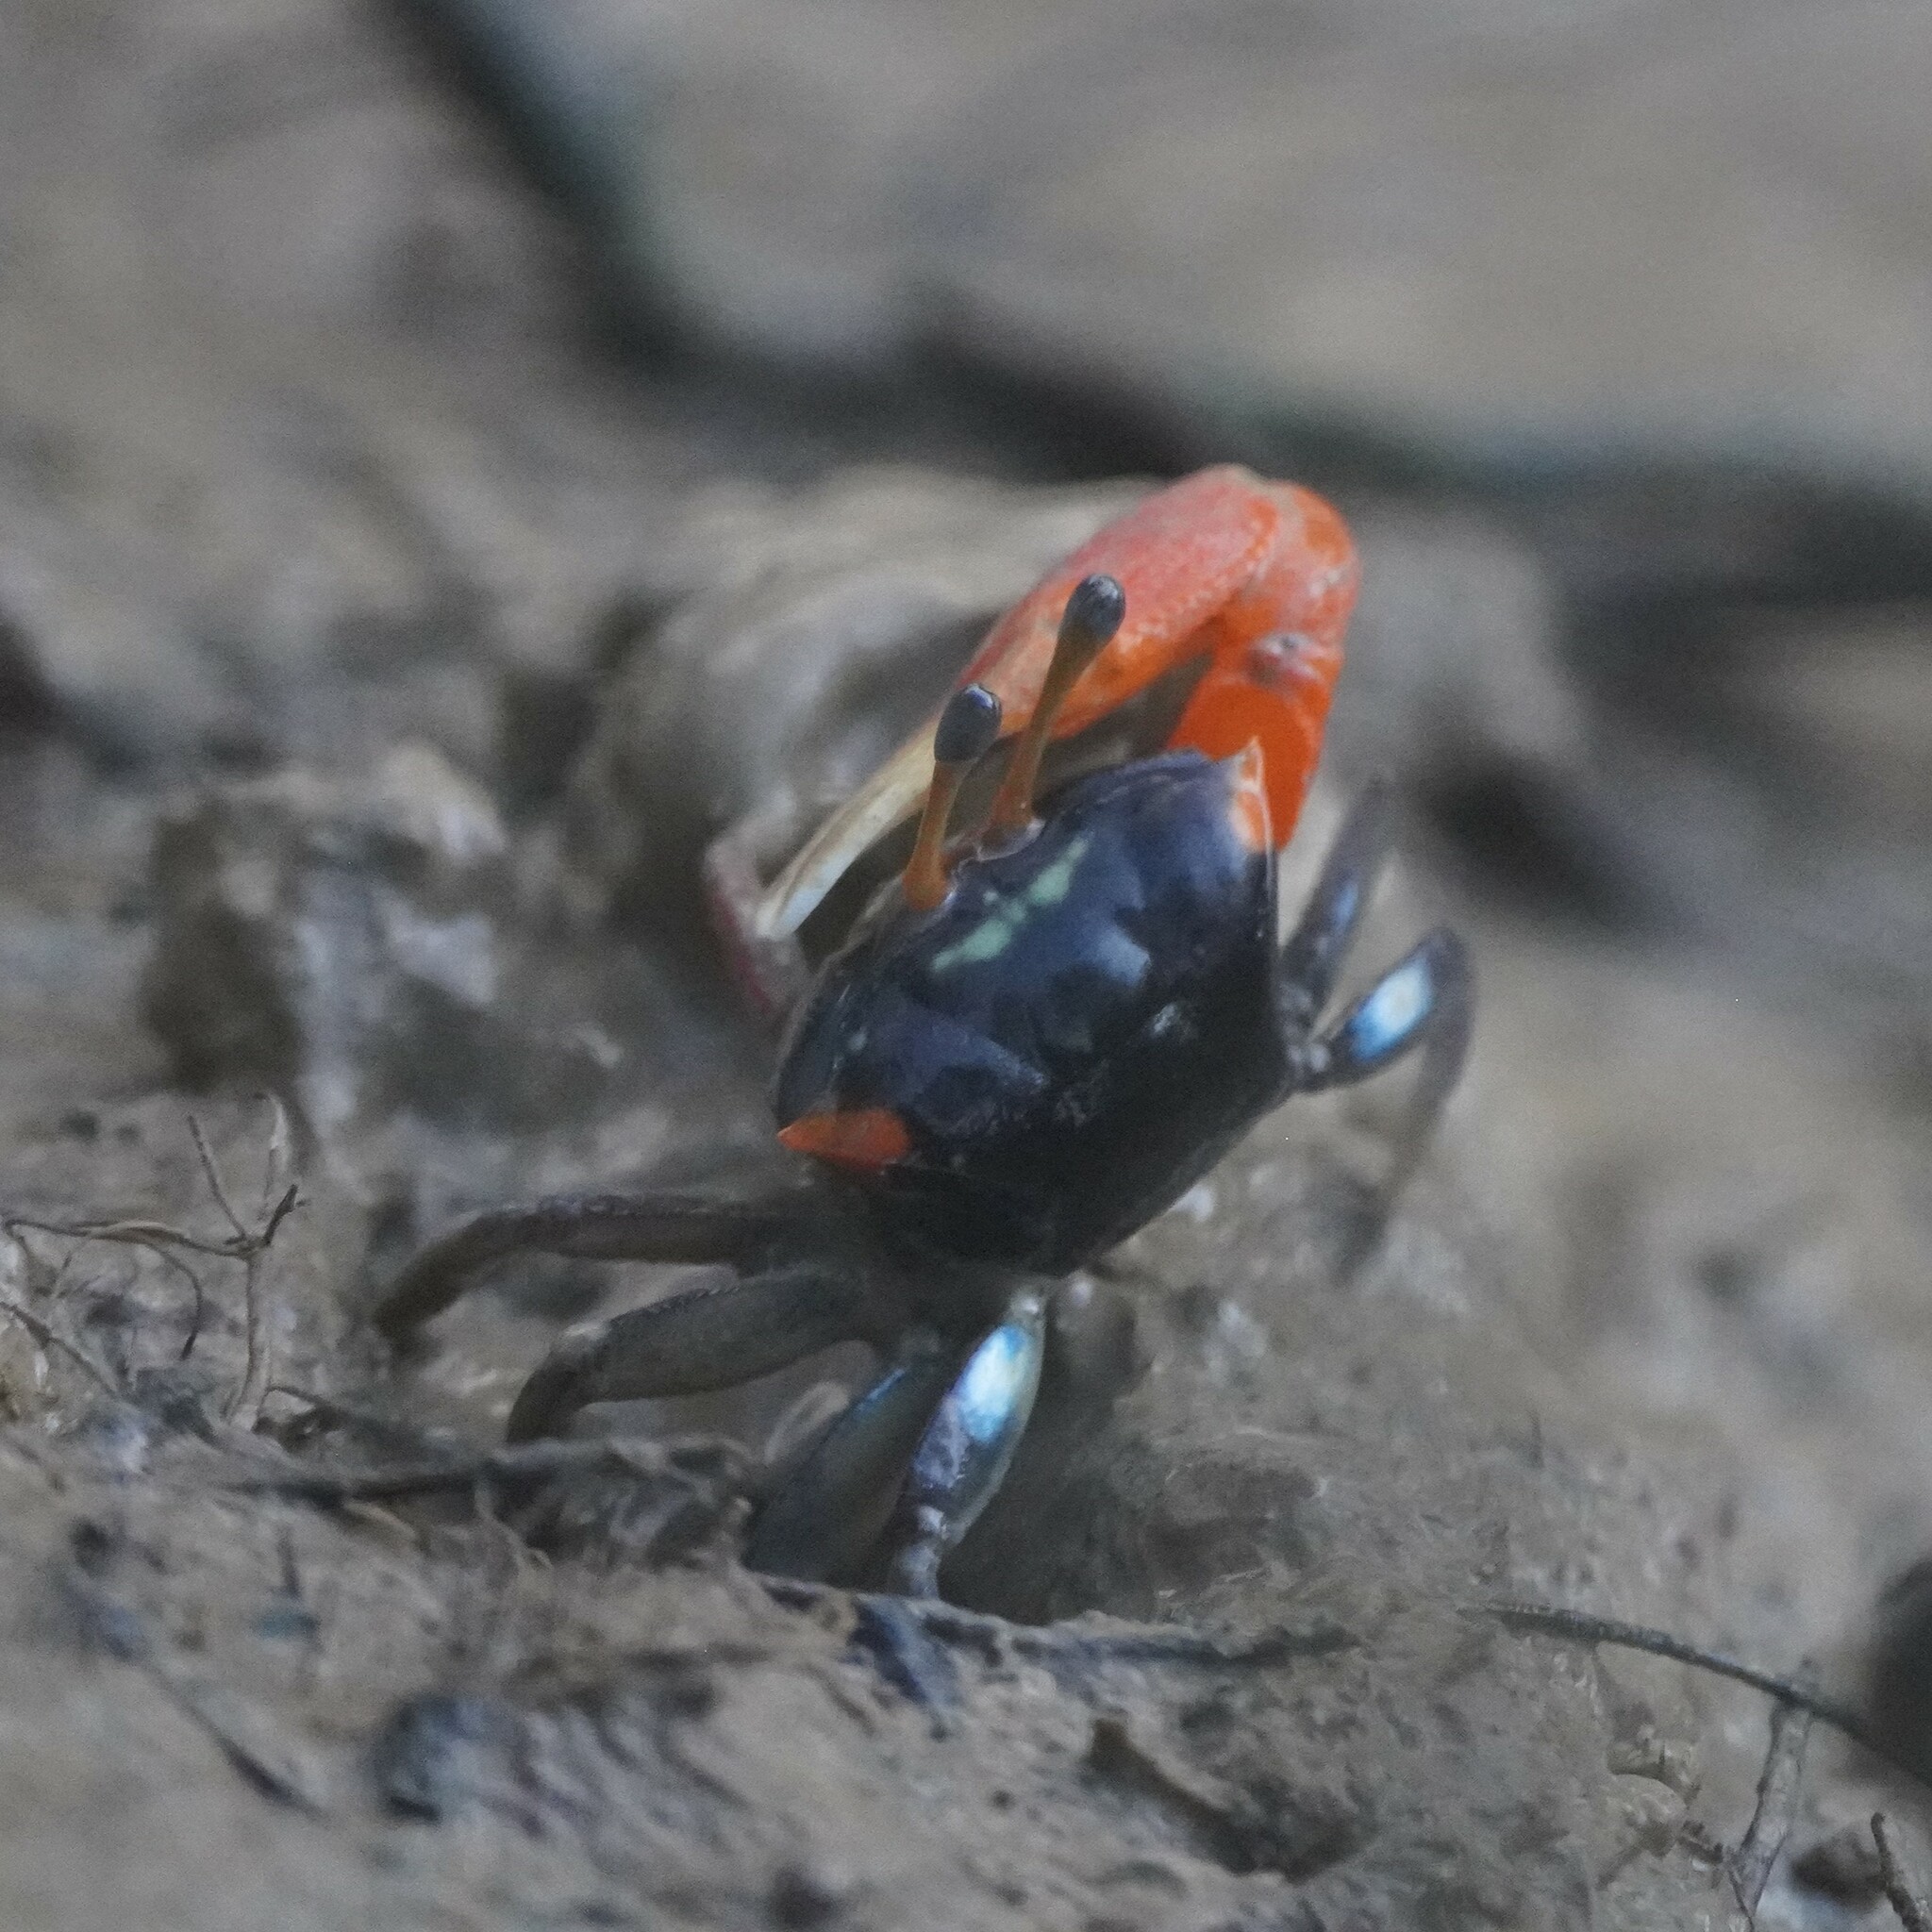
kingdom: Animalia
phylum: Arthropoda
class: Malacostraca
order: Decapoda
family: Ocypodidae
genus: Tubuca
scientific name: Tubuca coarctata
